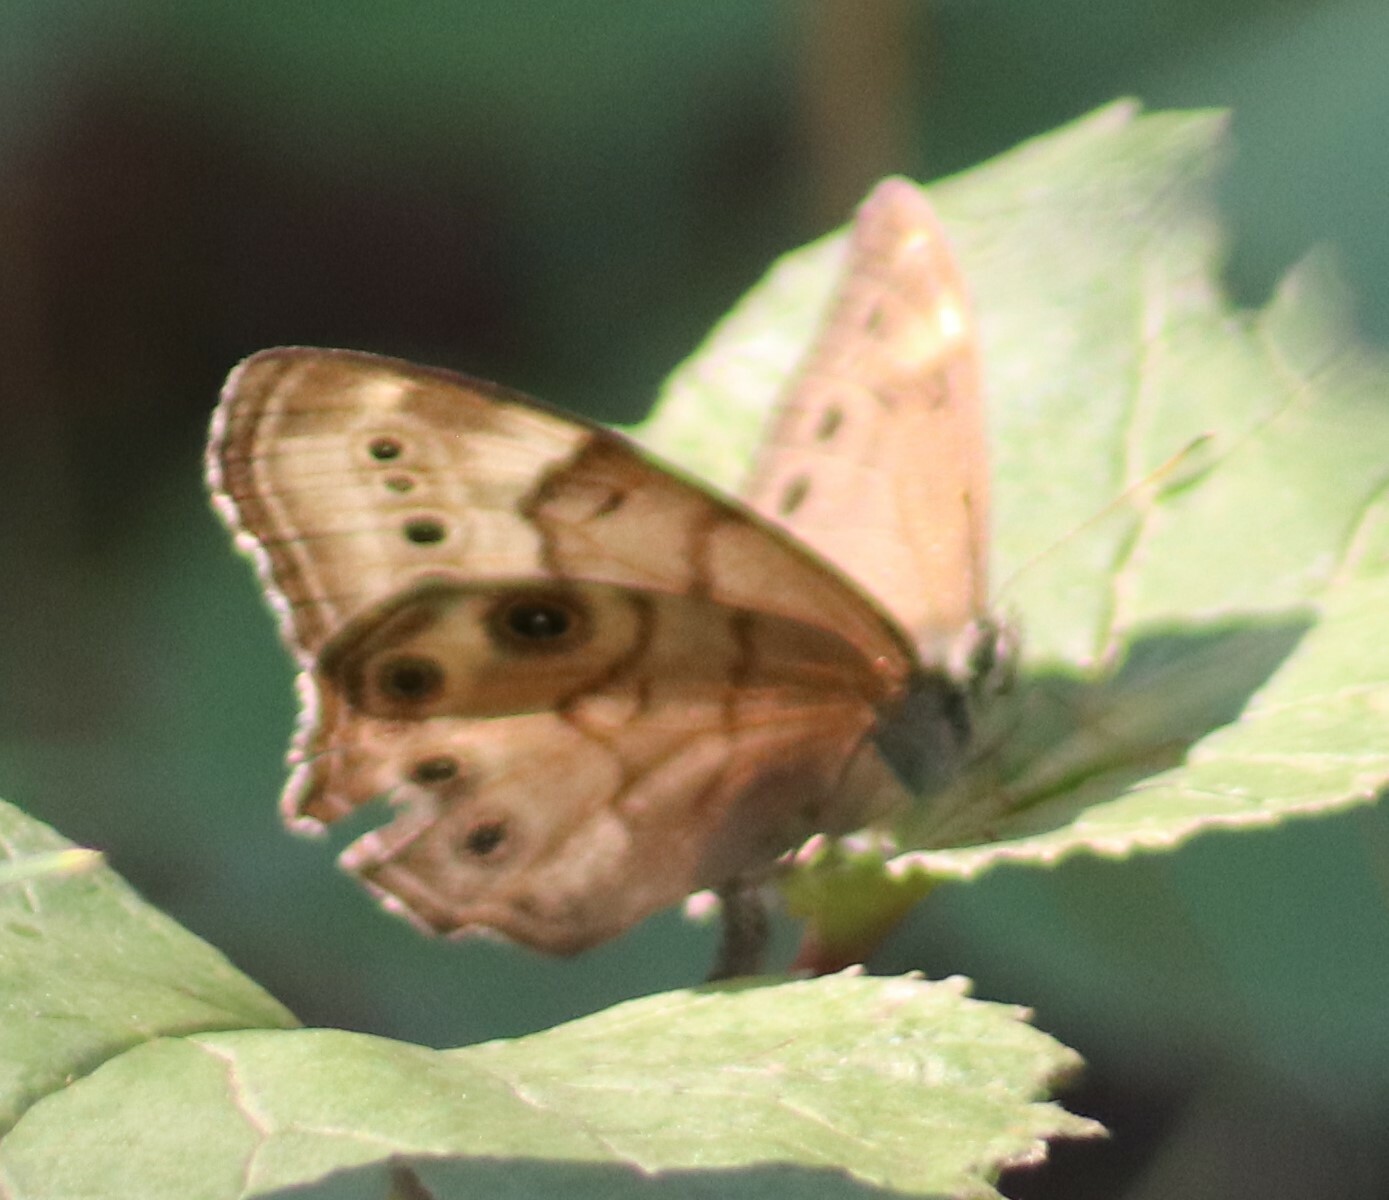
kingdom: Animalia
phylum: Arthropoda
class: Insecta
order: Lepidoptera
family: Nymphalidae
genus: Lethe
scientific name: Lethe anthedon
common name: Northern pearly-eye
